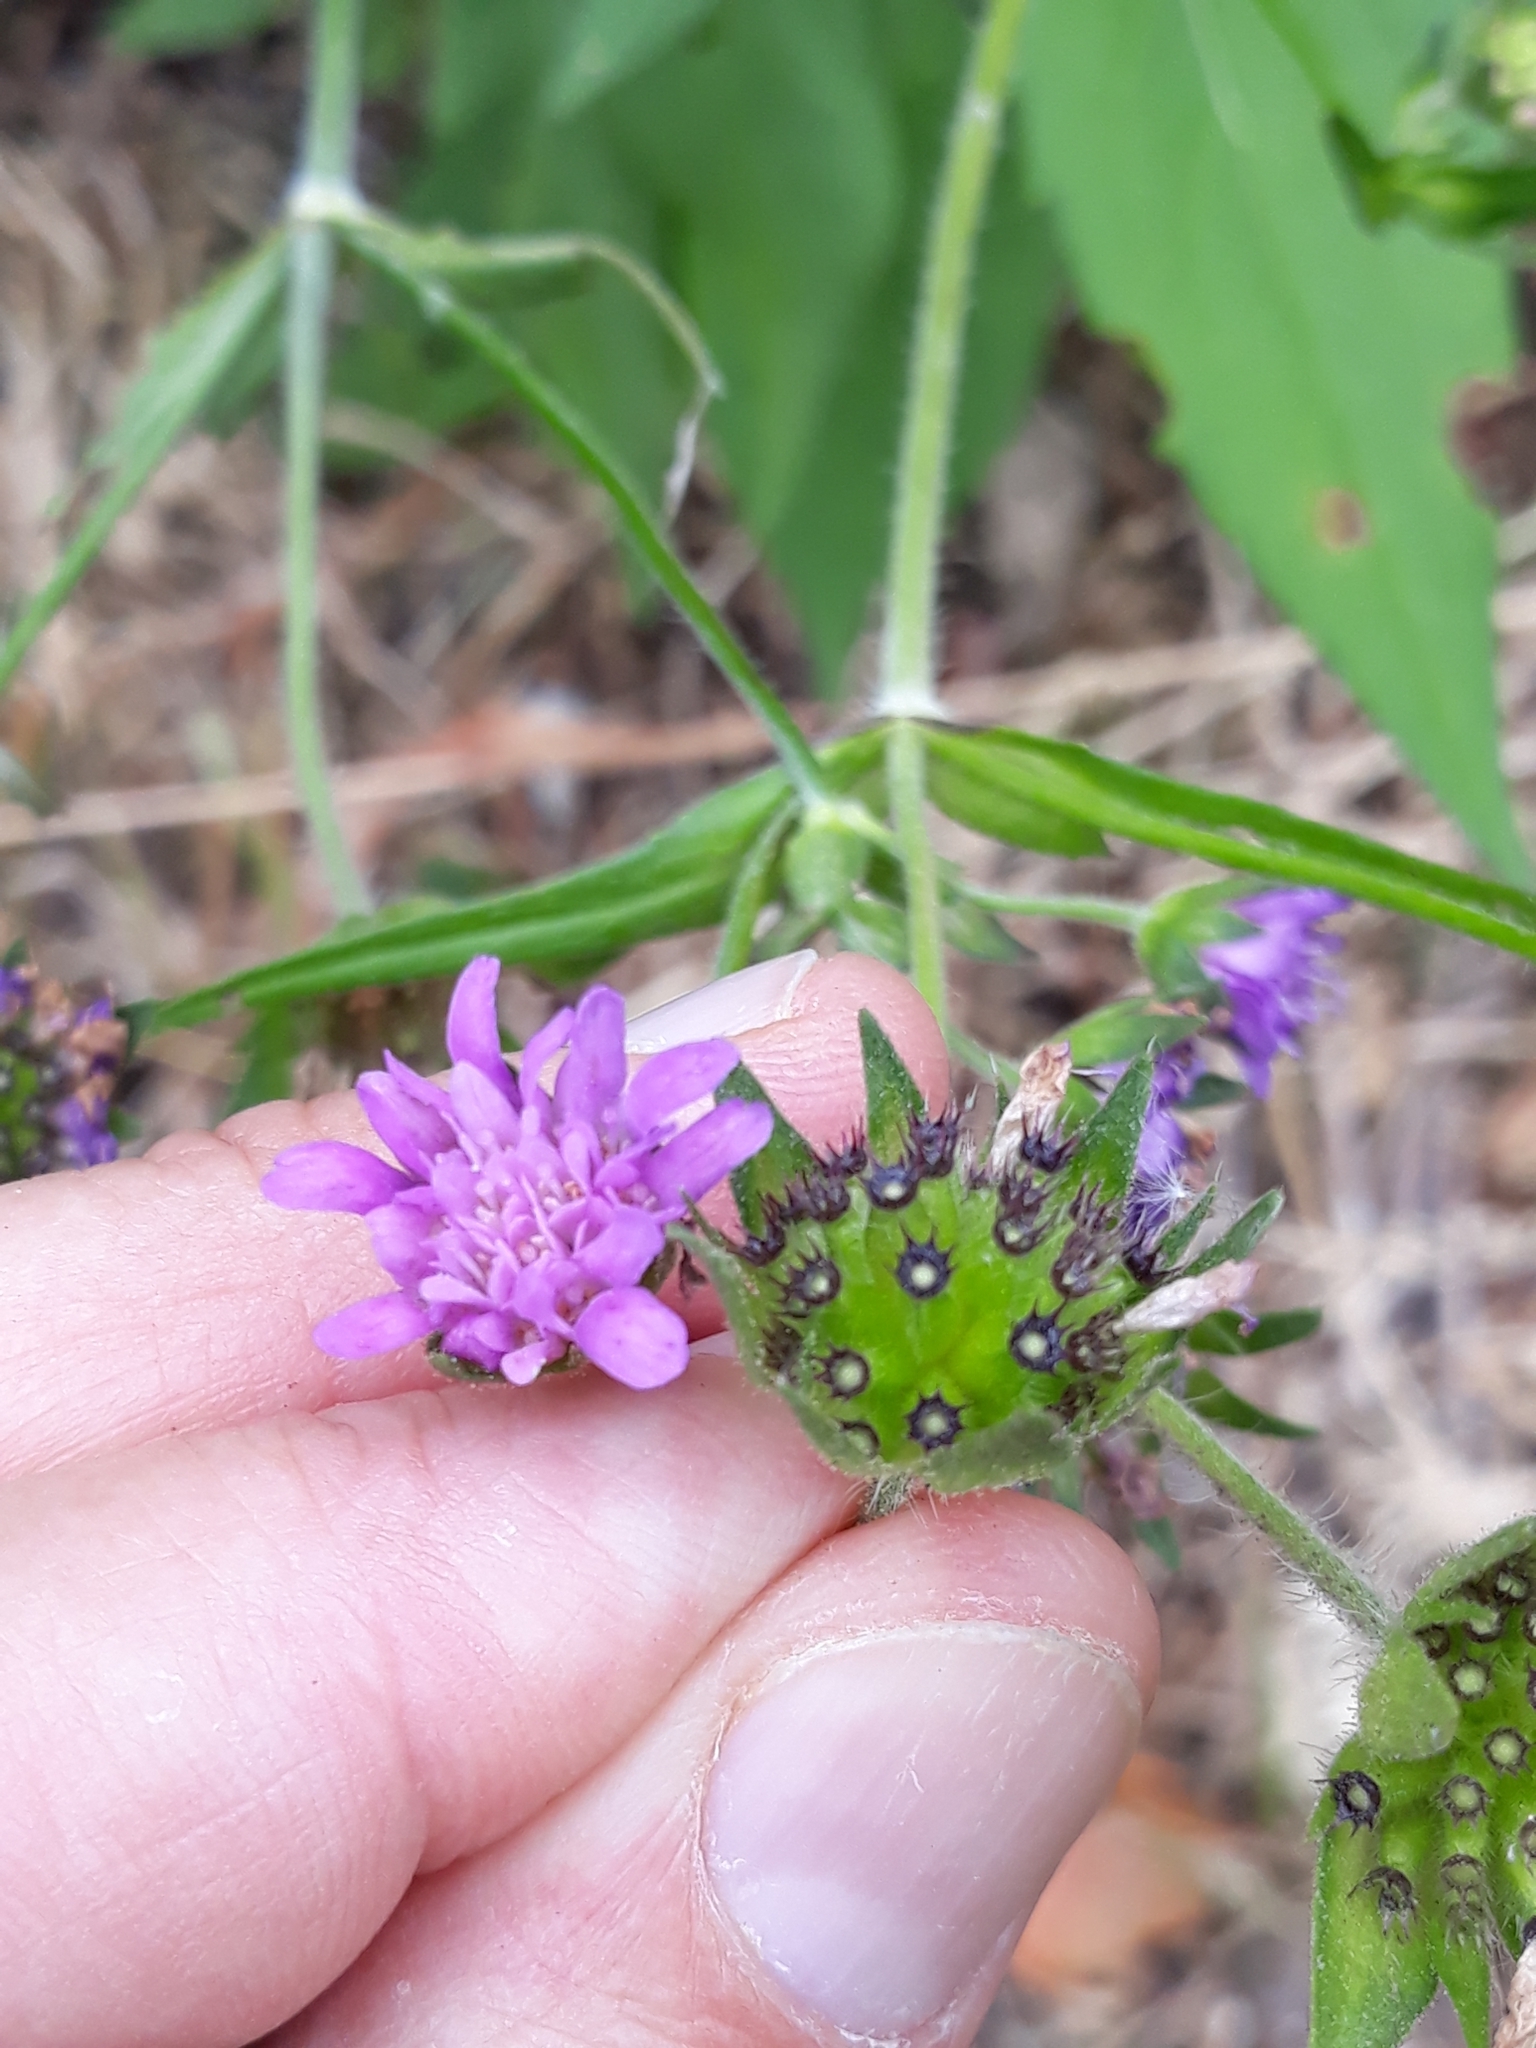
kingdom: Plantae
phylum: Tracheophyta
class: Magnoliopsida
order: Dipsacales
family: Caprifoliaceae
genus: Knautia
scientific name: Knautia dipsacifolia
